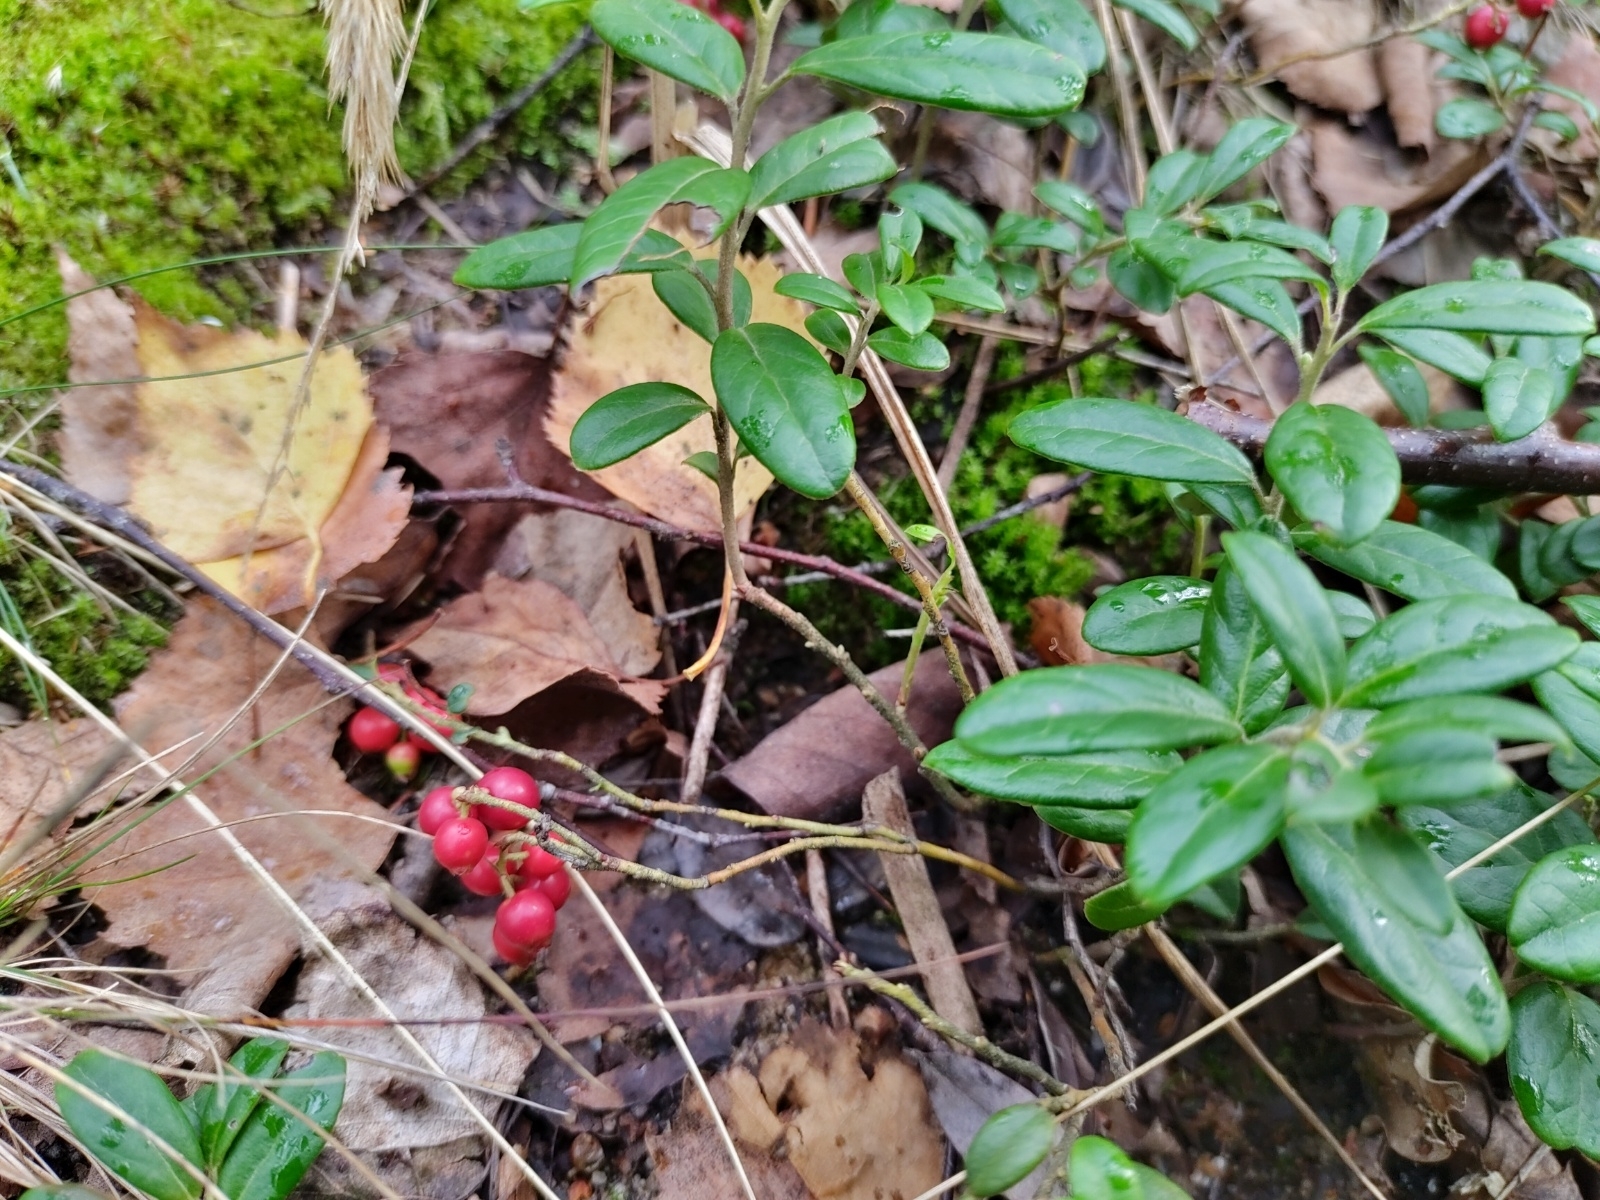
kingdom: Plantae
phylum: Tracheophyta
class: Magnoliopsida
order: Ericales
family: Ericaceae
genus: Vaccinium
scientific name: Vaccinium vitis-idaea
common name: Cowberry
